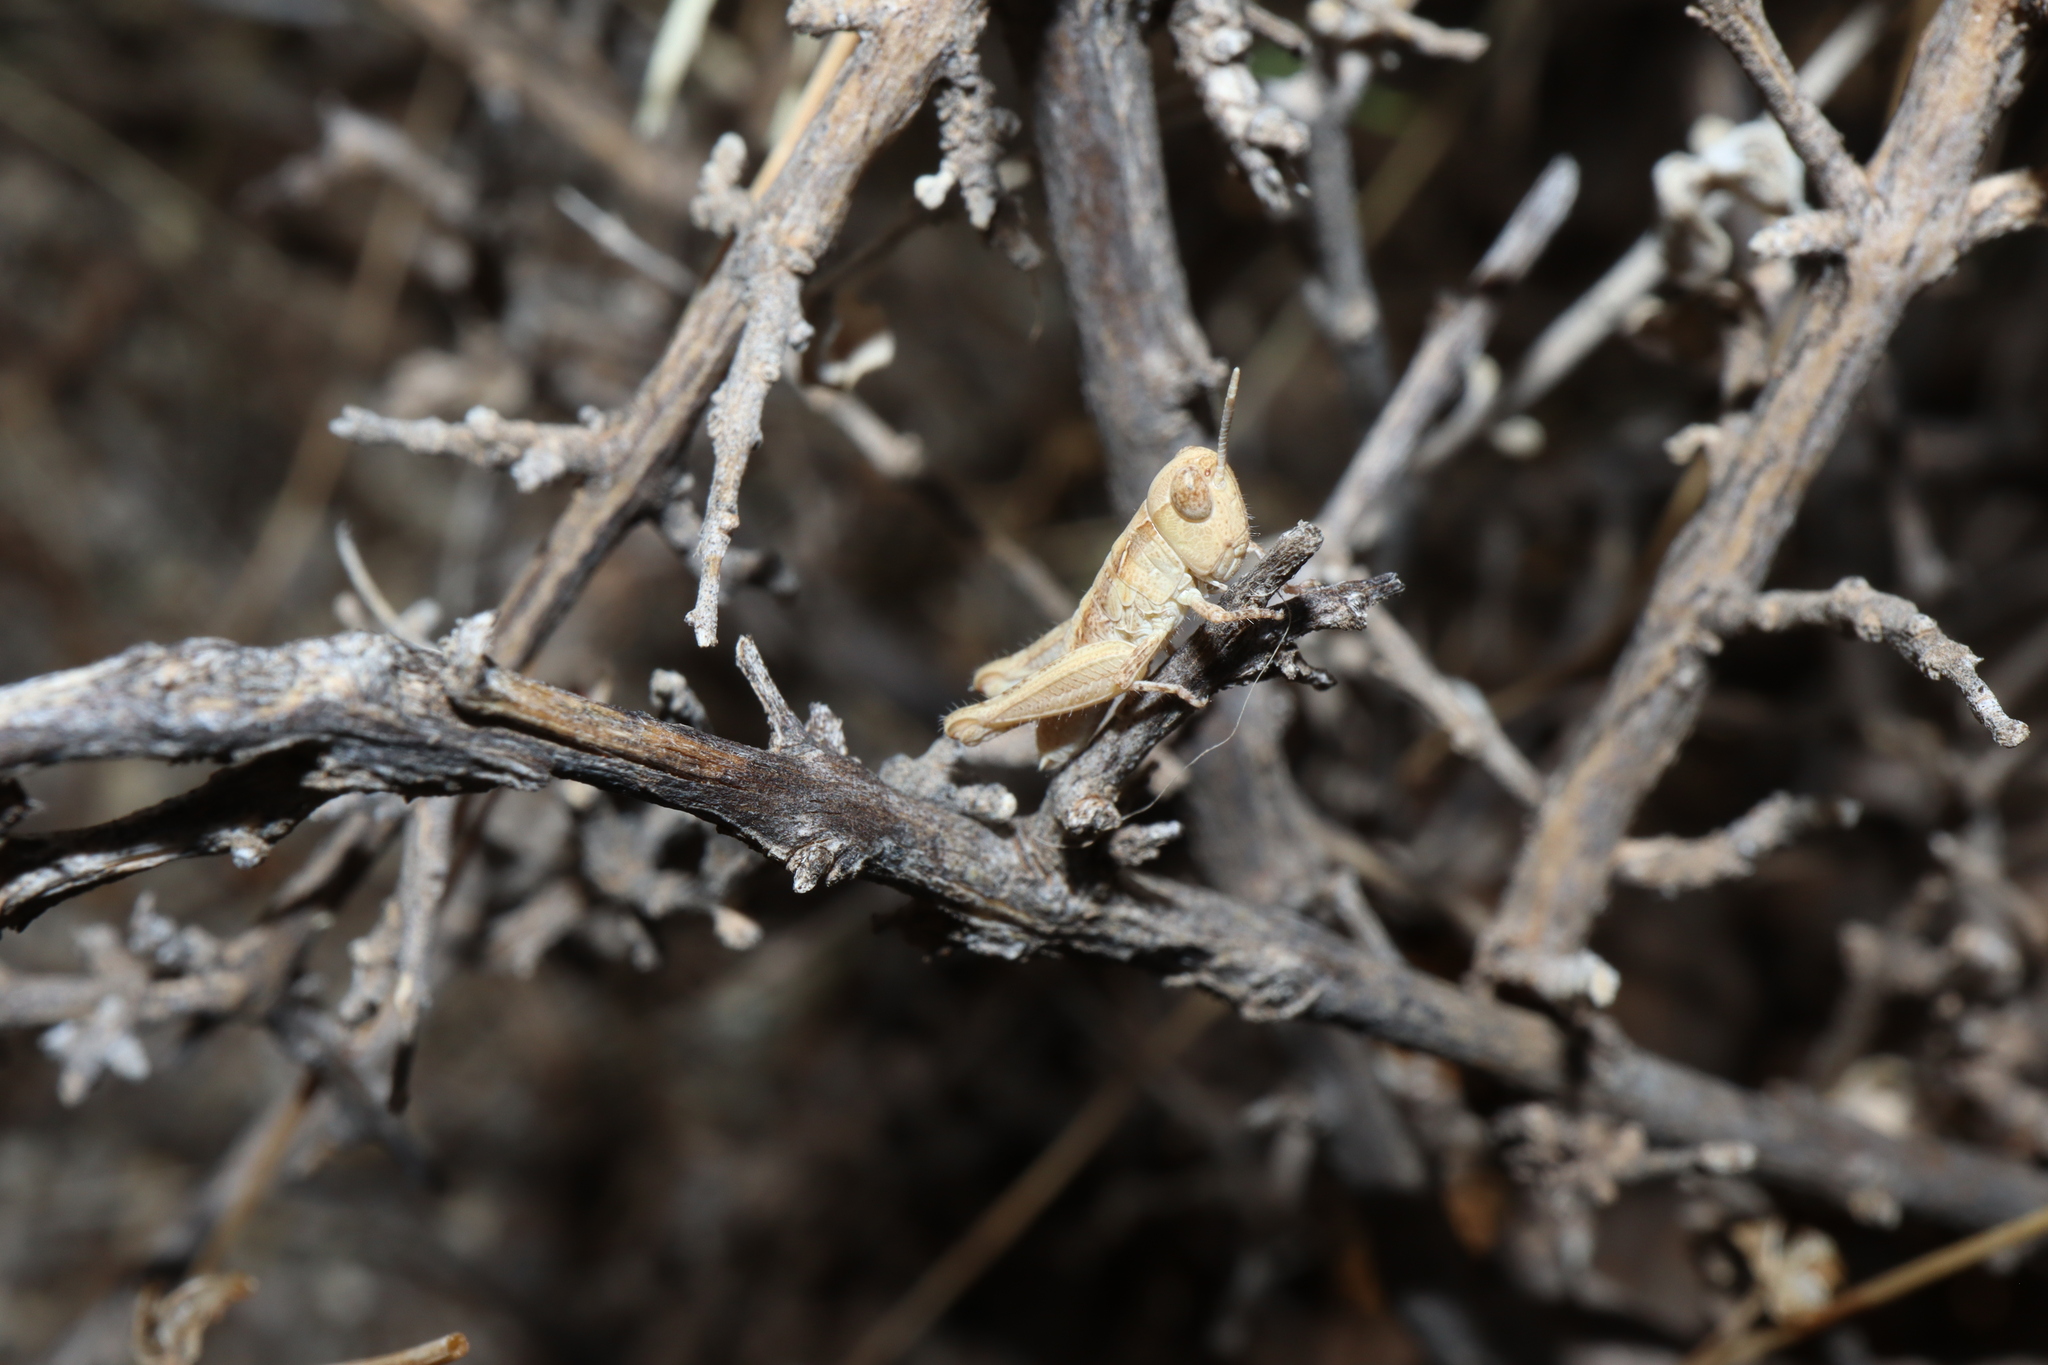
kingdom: Animalia
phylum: Arthropoda
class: Insecta
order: Orthoptera
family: Acrididae
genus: Chortoicetes
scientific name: Chortoicetes terminifera
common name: Australian plague locust
